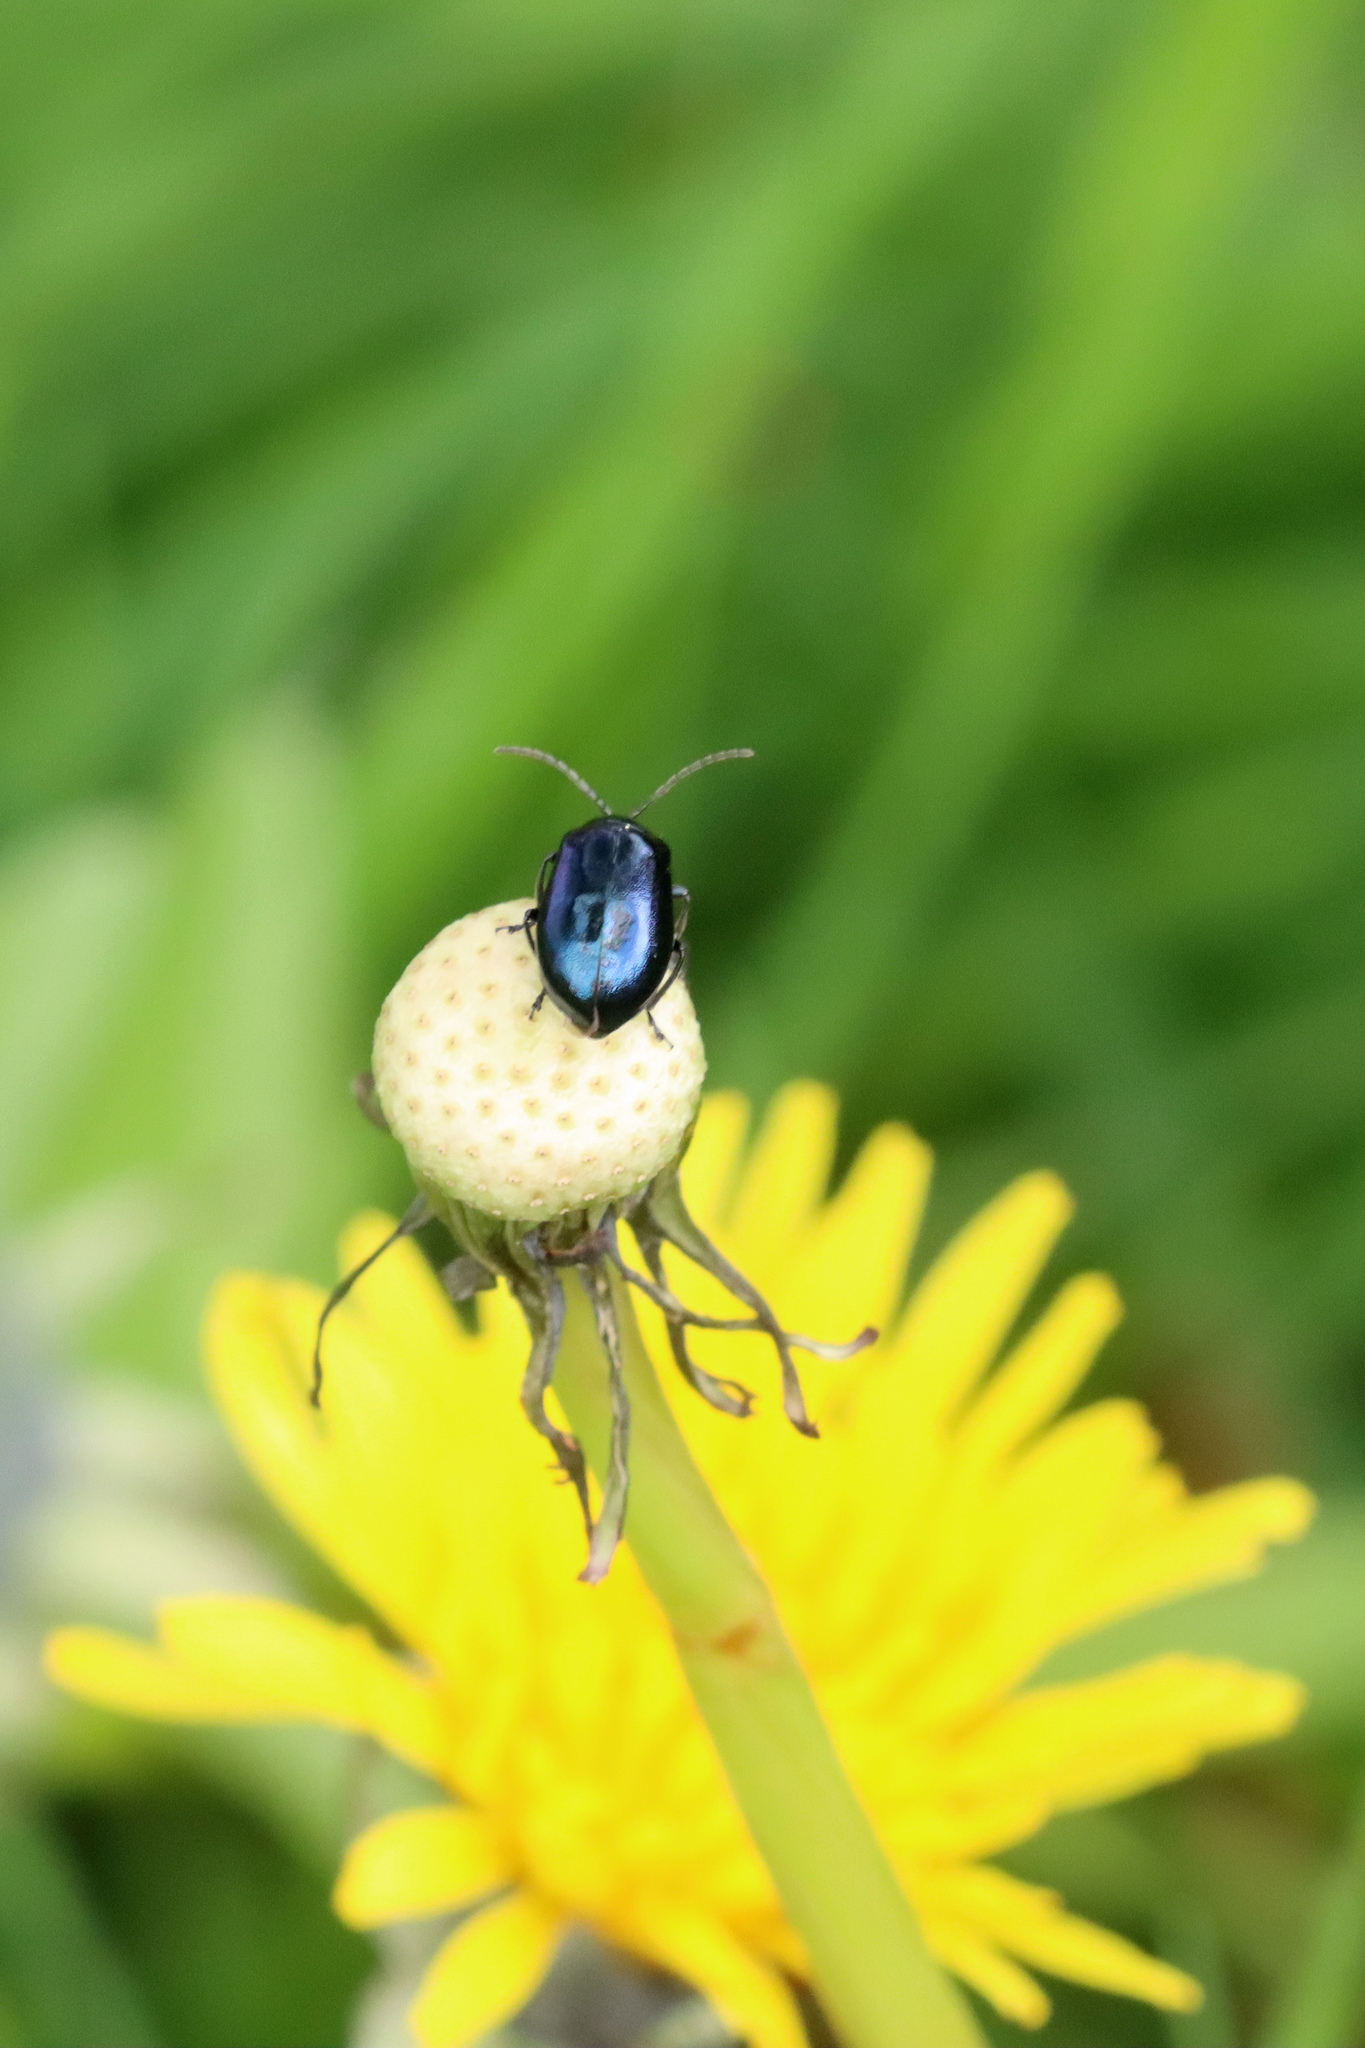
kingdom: Animalia
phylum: Arthropoda
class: Insecta
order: Coleoptera
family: Chrysomelidae
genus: Agelastica
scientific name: Agelastica alni
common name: Alder leaf beetle
